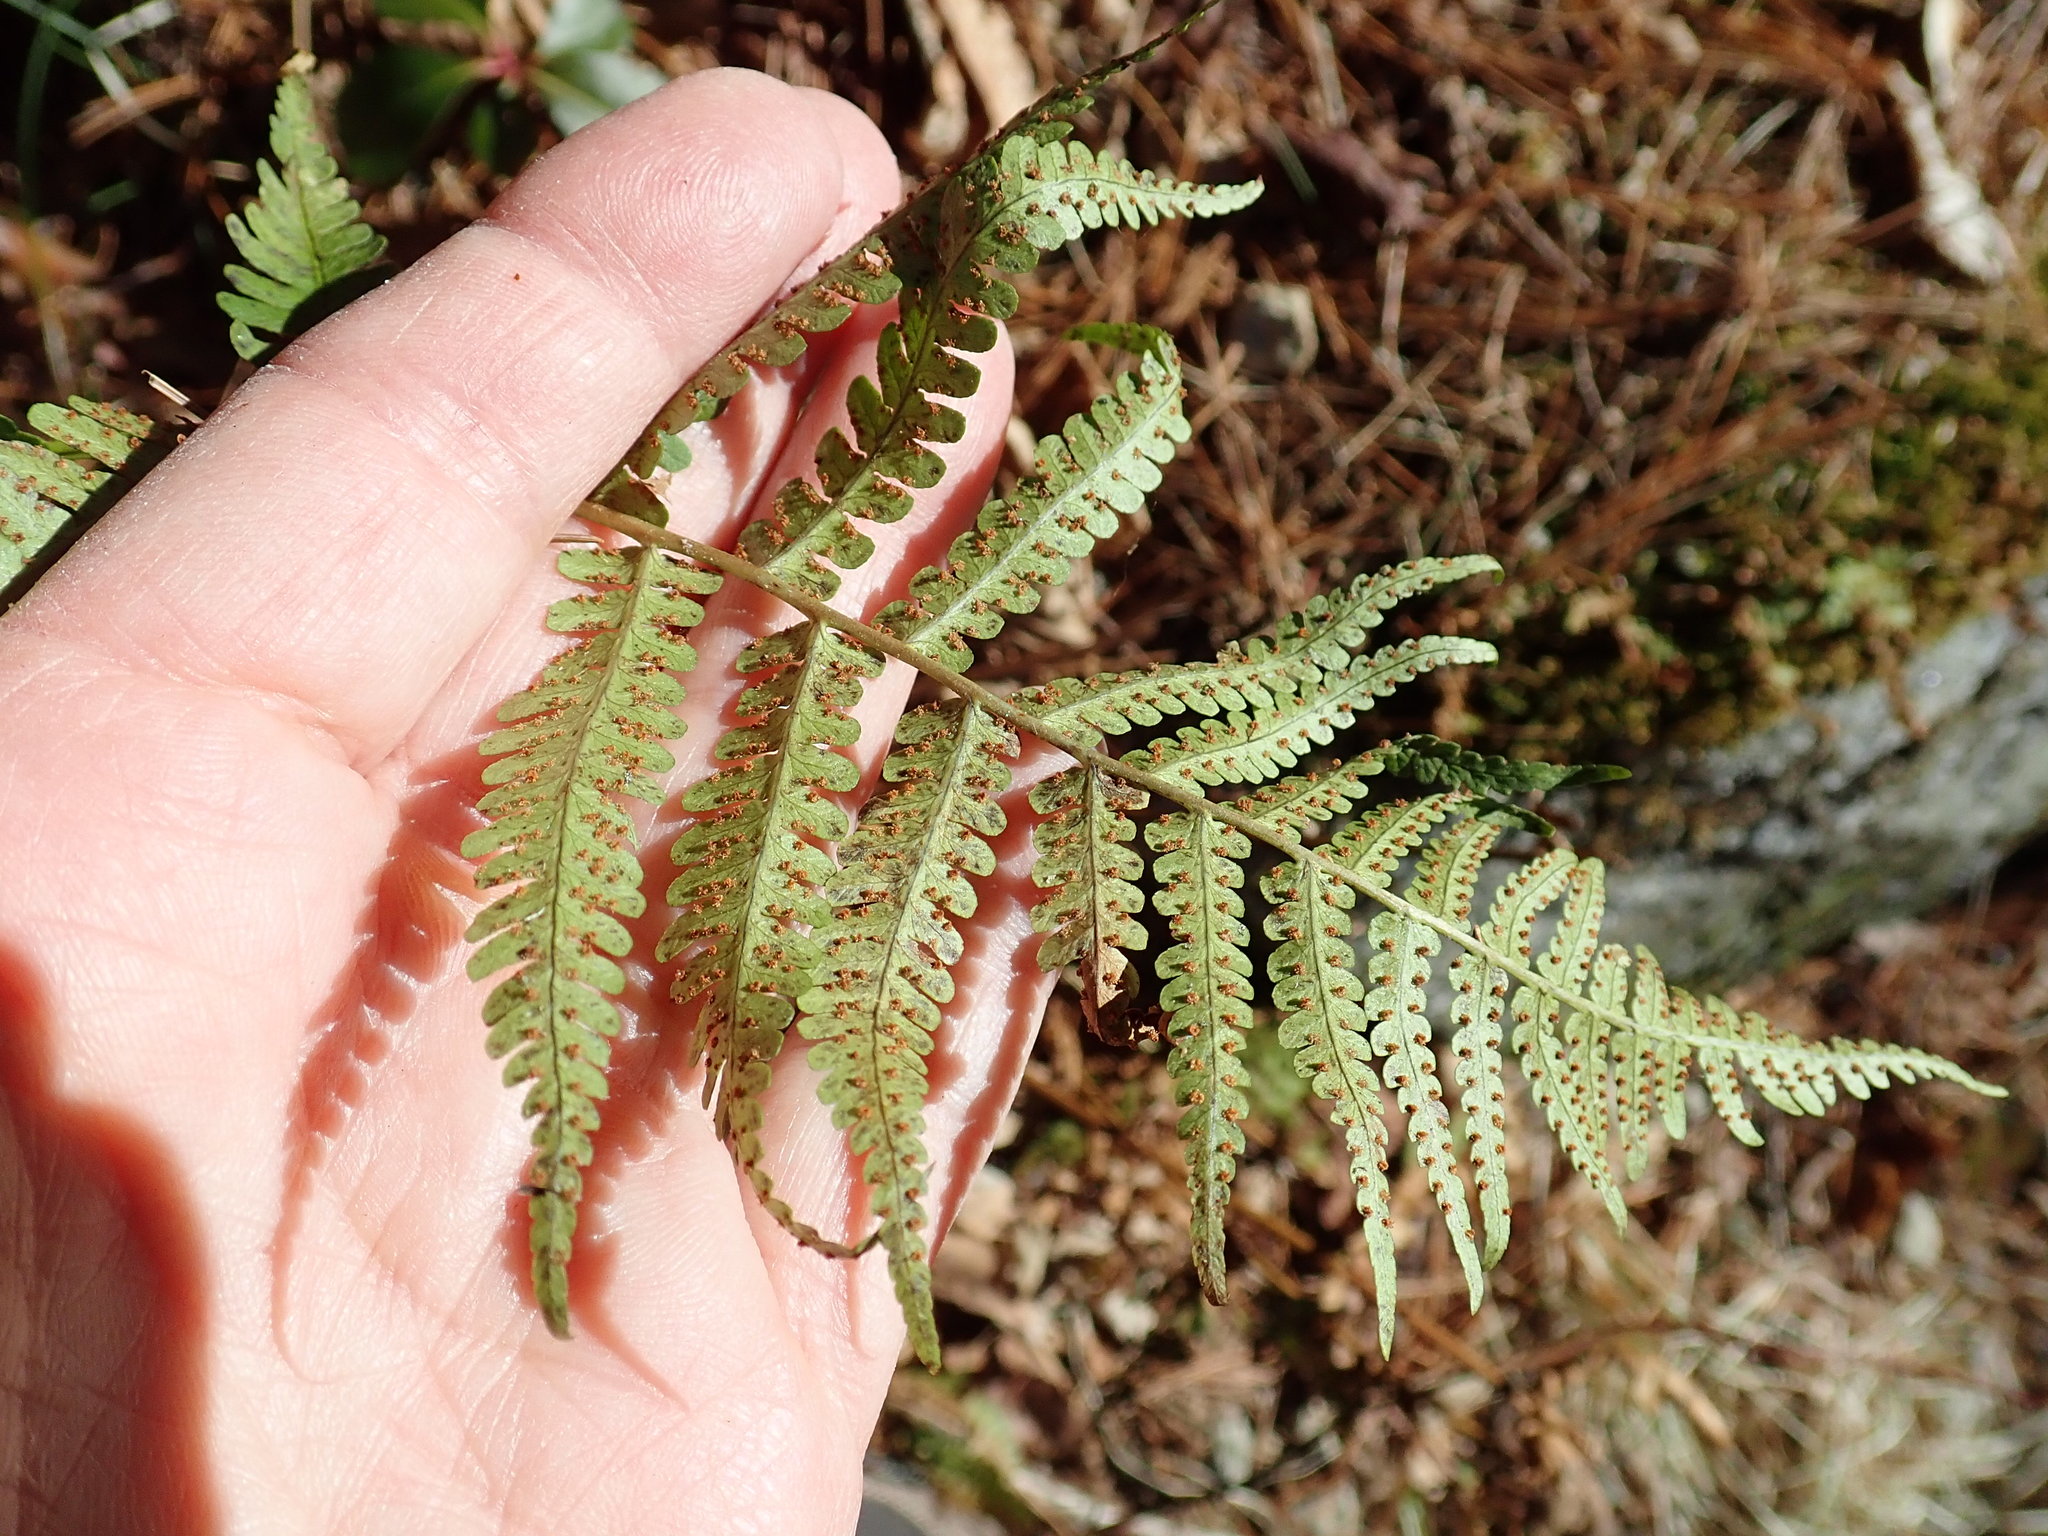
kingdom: Plantae
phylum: Tracheophyta
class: Polypodiopsida
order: Polypodiales
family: Dryopteridaceae
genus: Dryopteris
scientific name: Dryopteris marginalis
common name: Marginal wood fern
